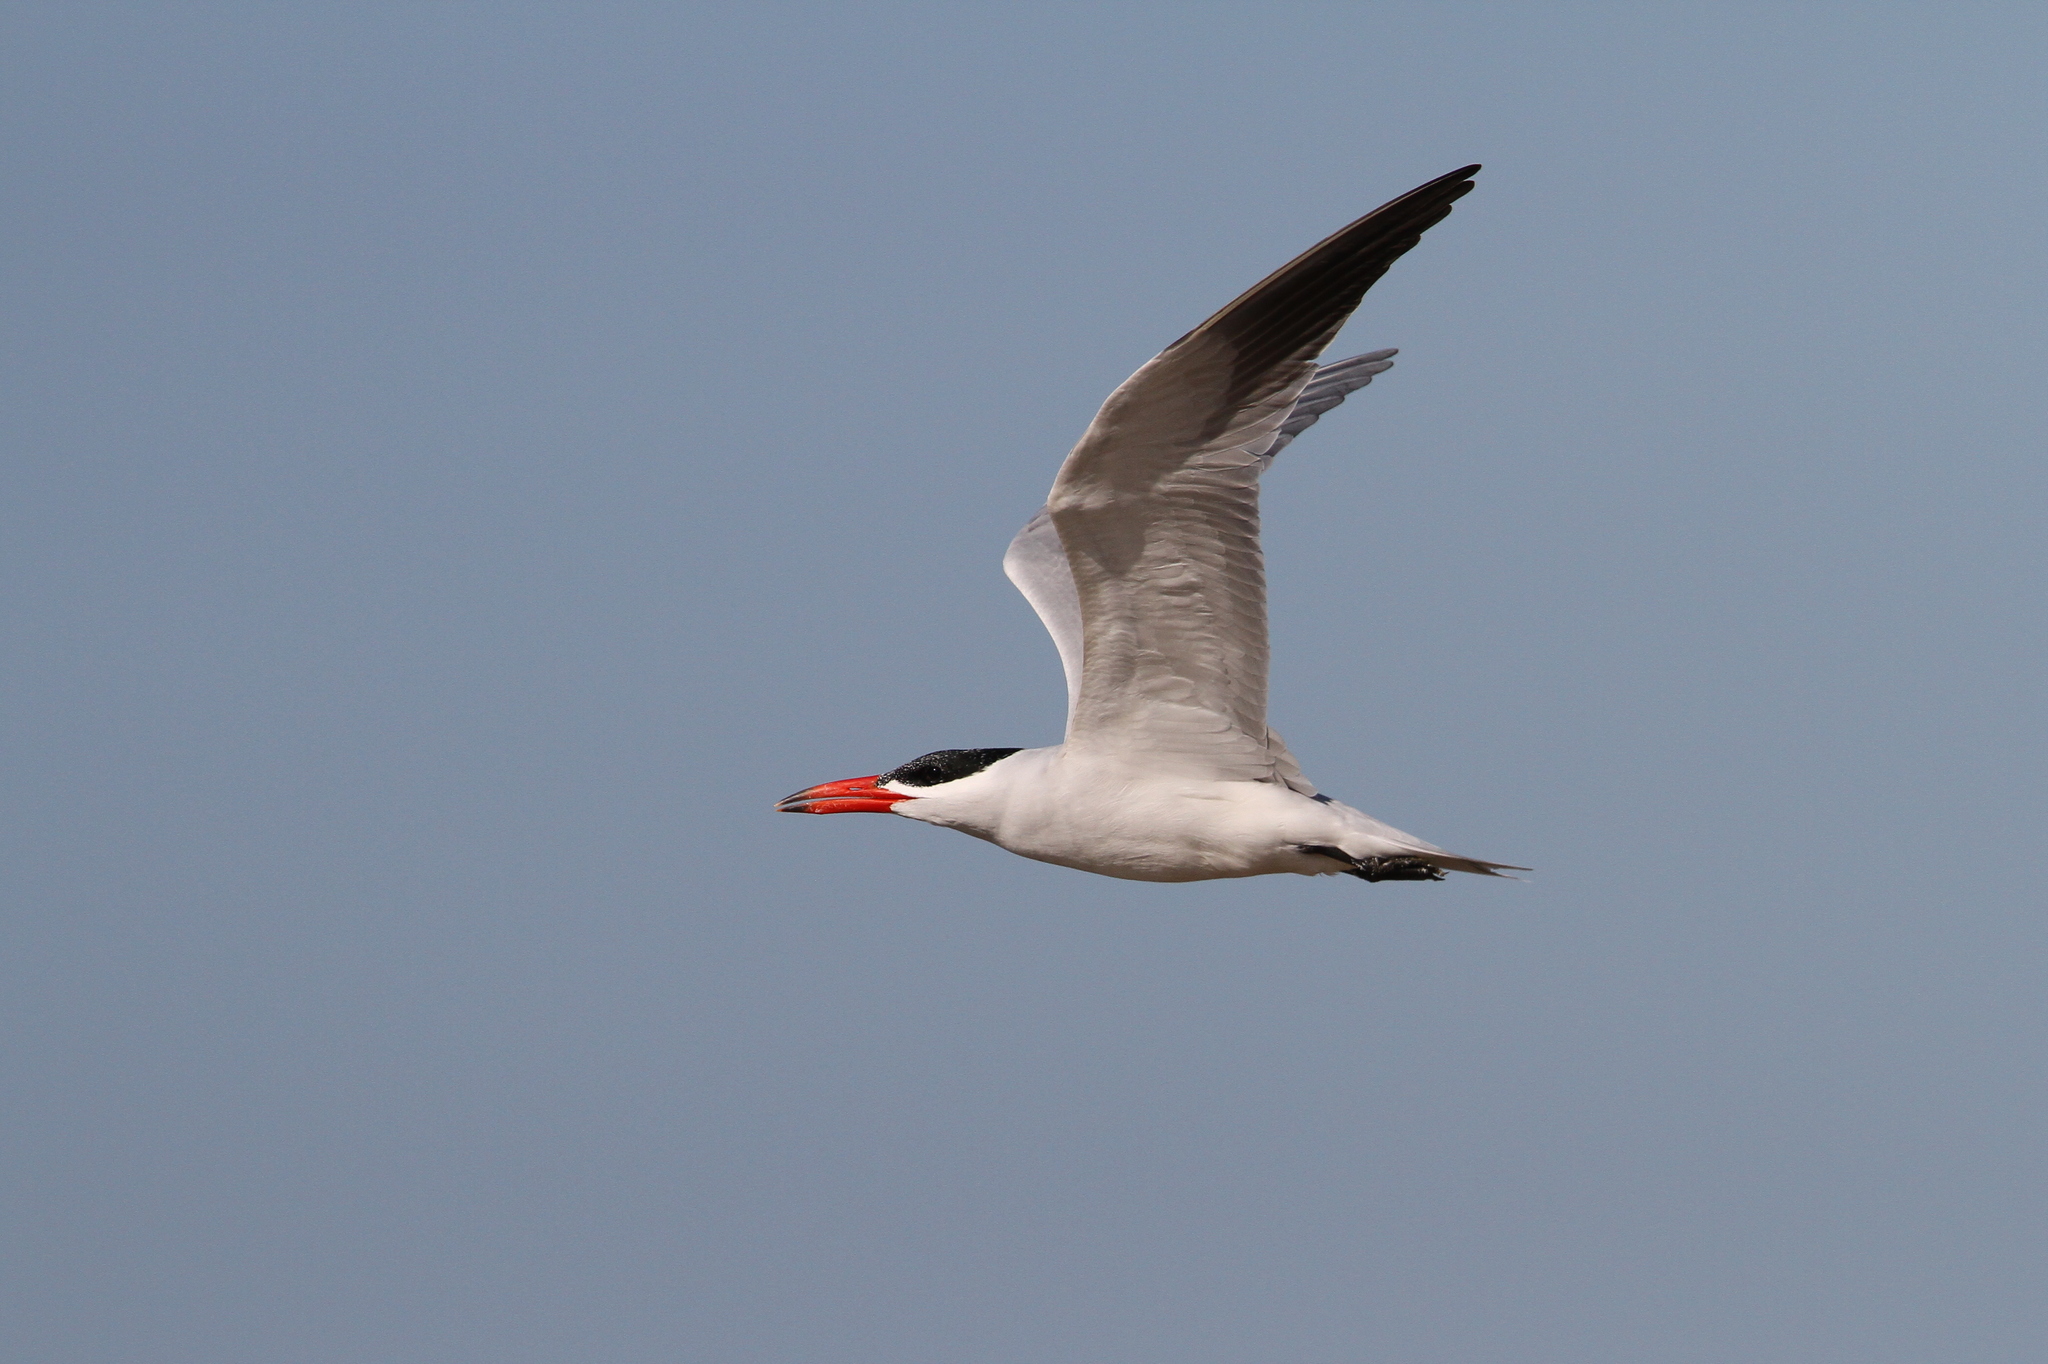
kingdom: Animalia
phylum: Chordata
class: Aves
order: Charadriiformes
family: Laridae
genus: Hydroprogne
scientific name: Hydroprogne caspia
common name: Caspian tern
